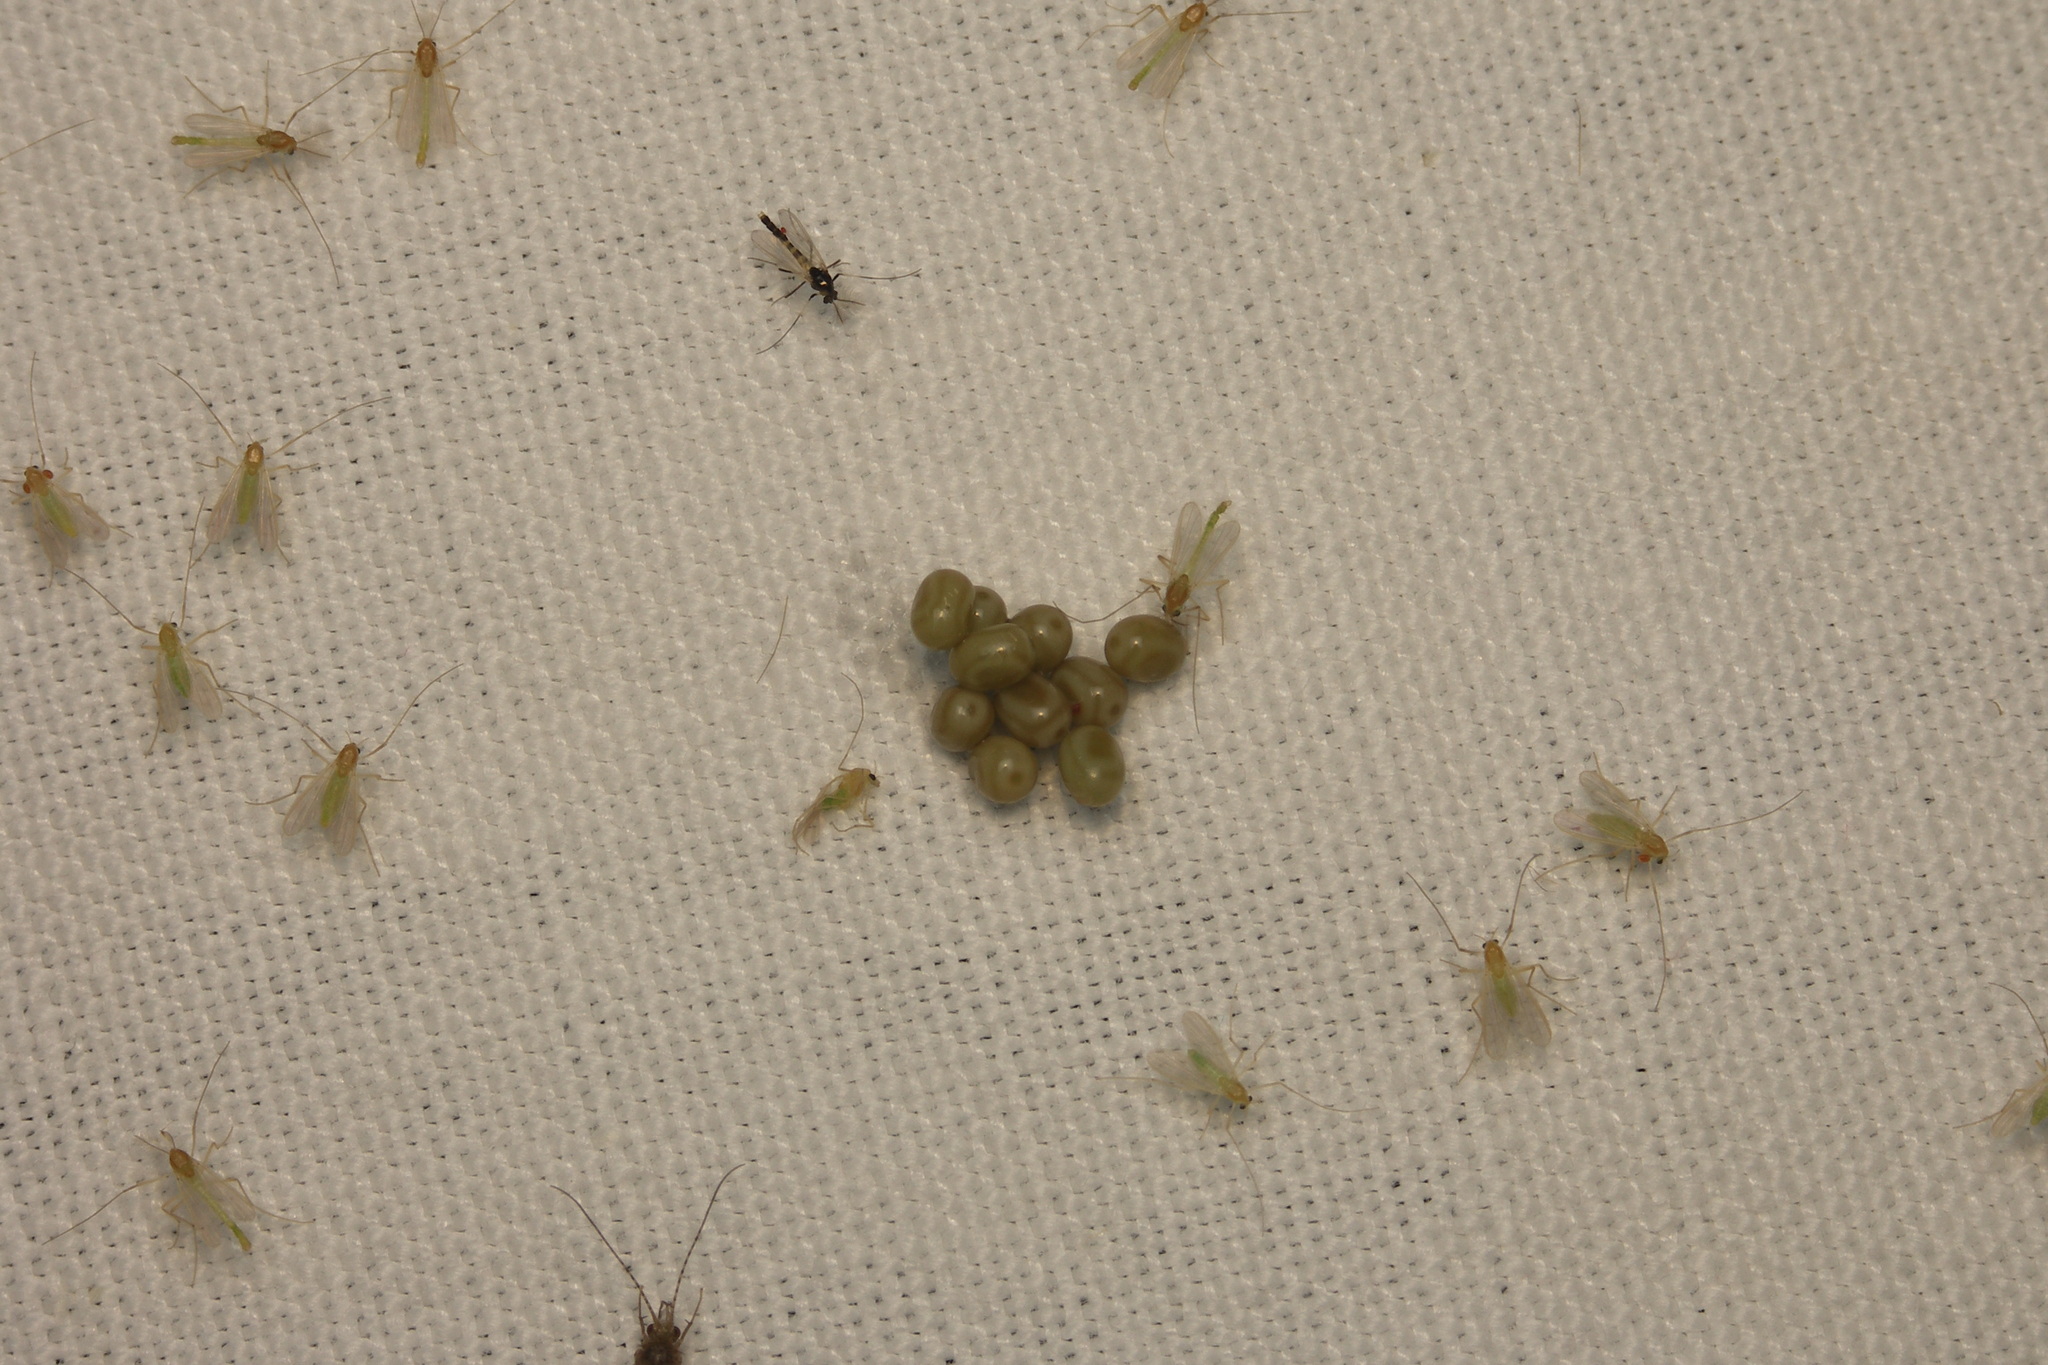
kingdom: Animalia
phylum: Arthropoda
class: Insecta
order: Lepidoptera
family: Lasiocampidae
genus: Macrothylacia
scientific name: Macrothylacia rubi
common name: Fox moth
